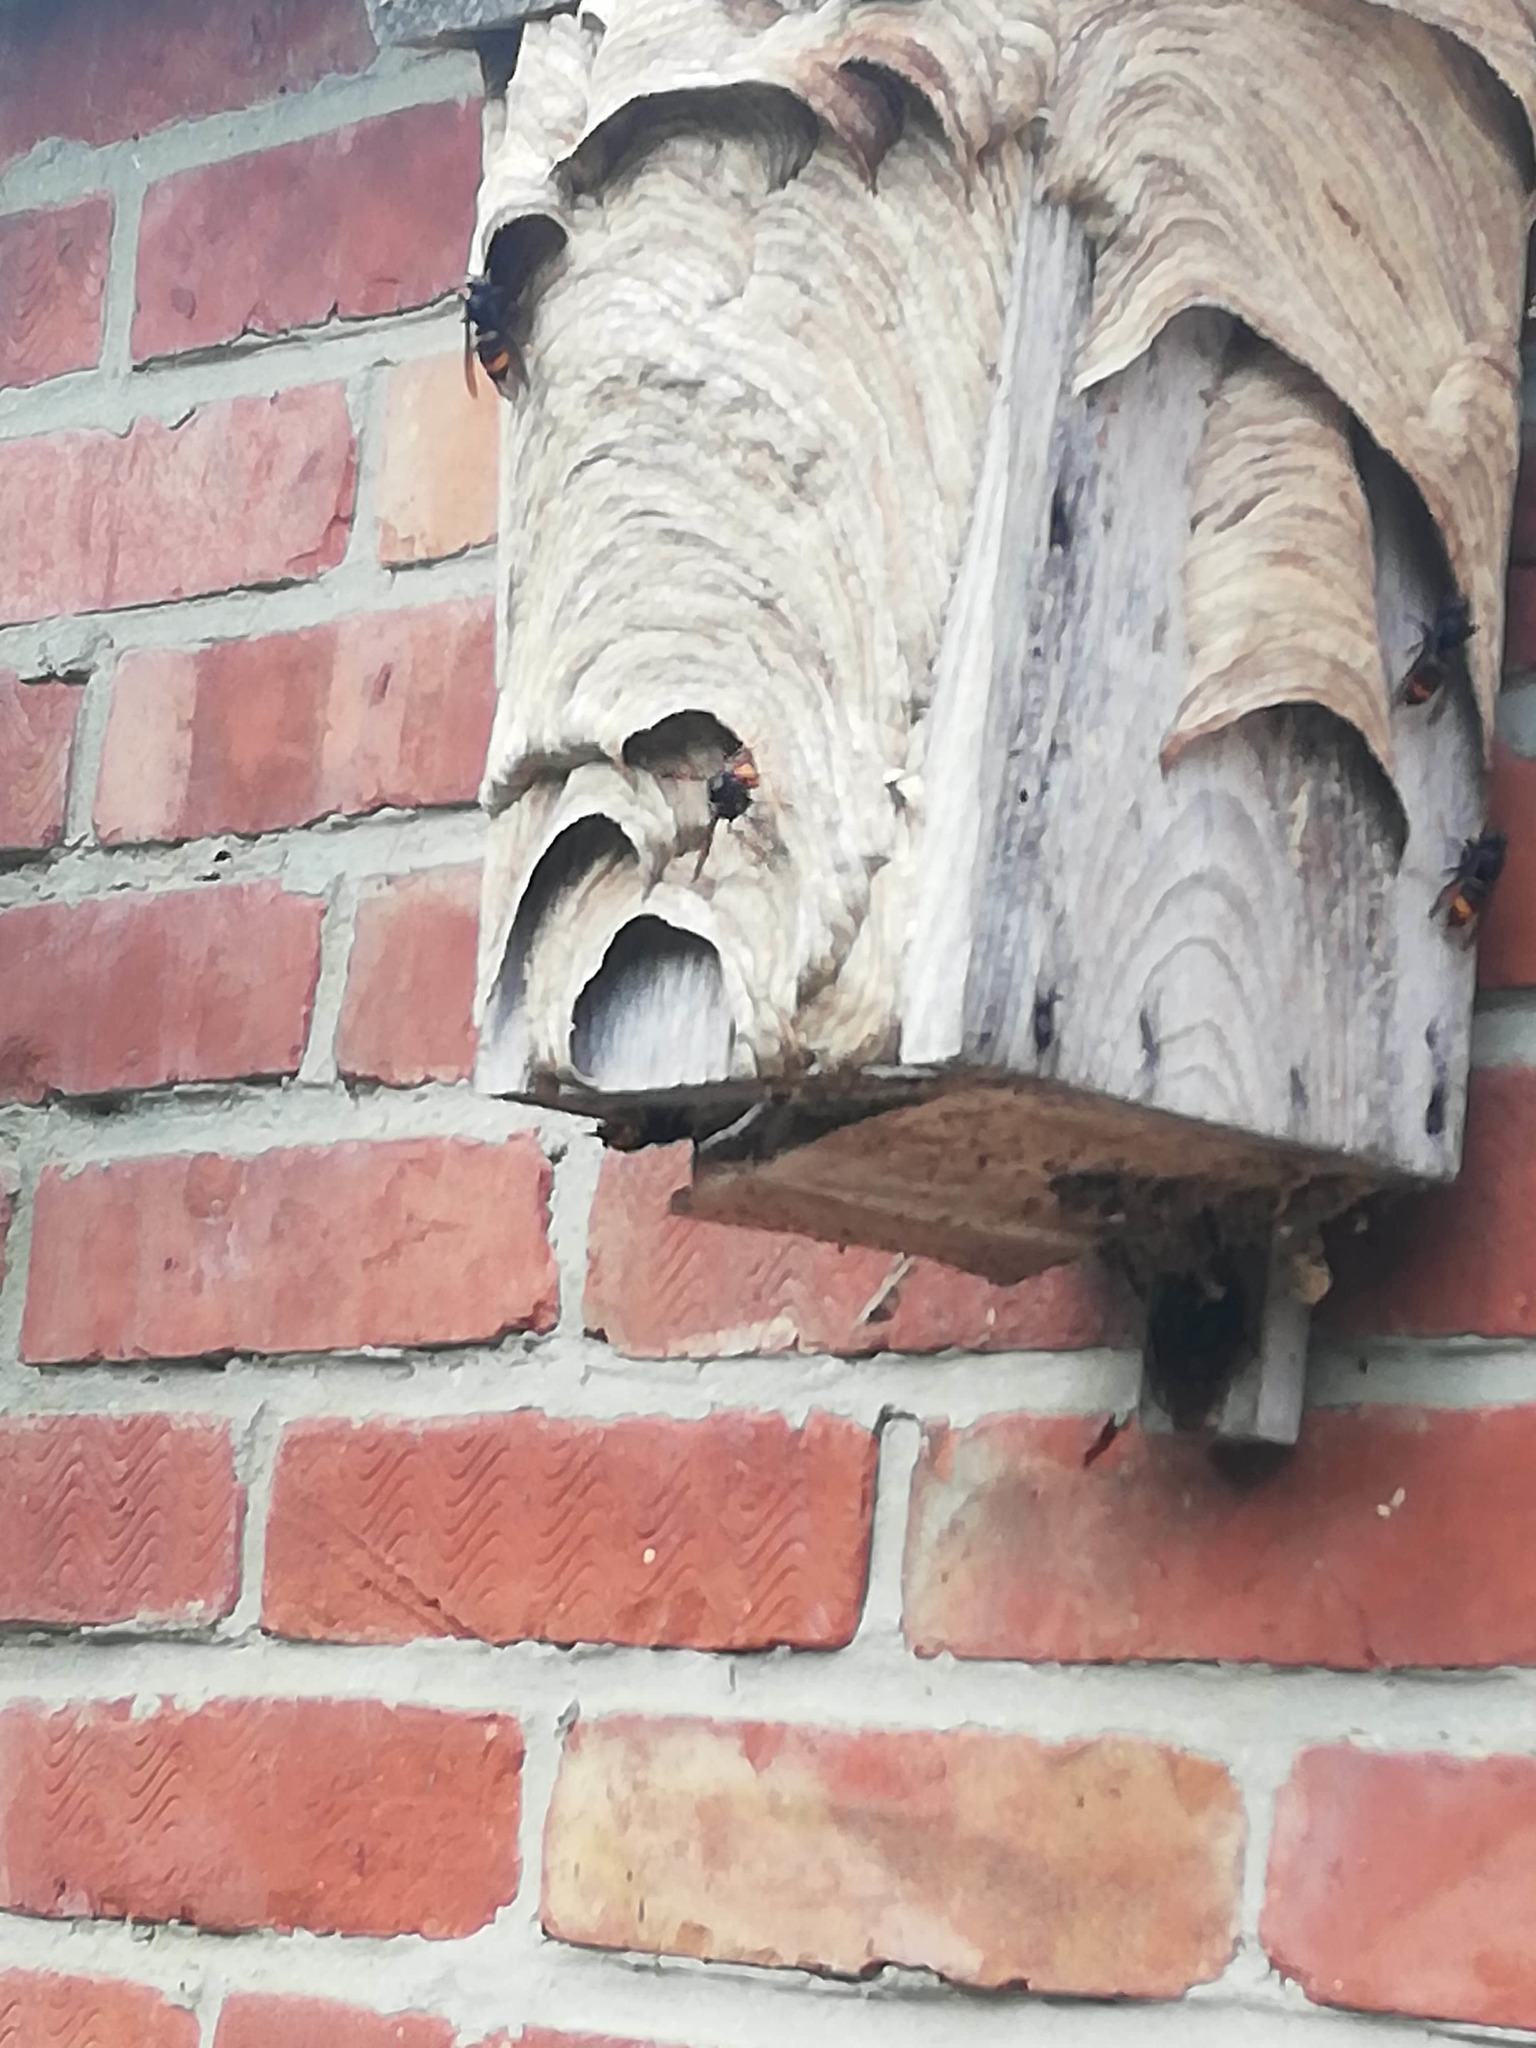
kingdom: Animalia
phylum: Arthropoda
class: Insecta
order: Hymenoptera
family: Vespidae
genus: Vespa
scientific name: Vespa velutina
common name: Asian hornet
